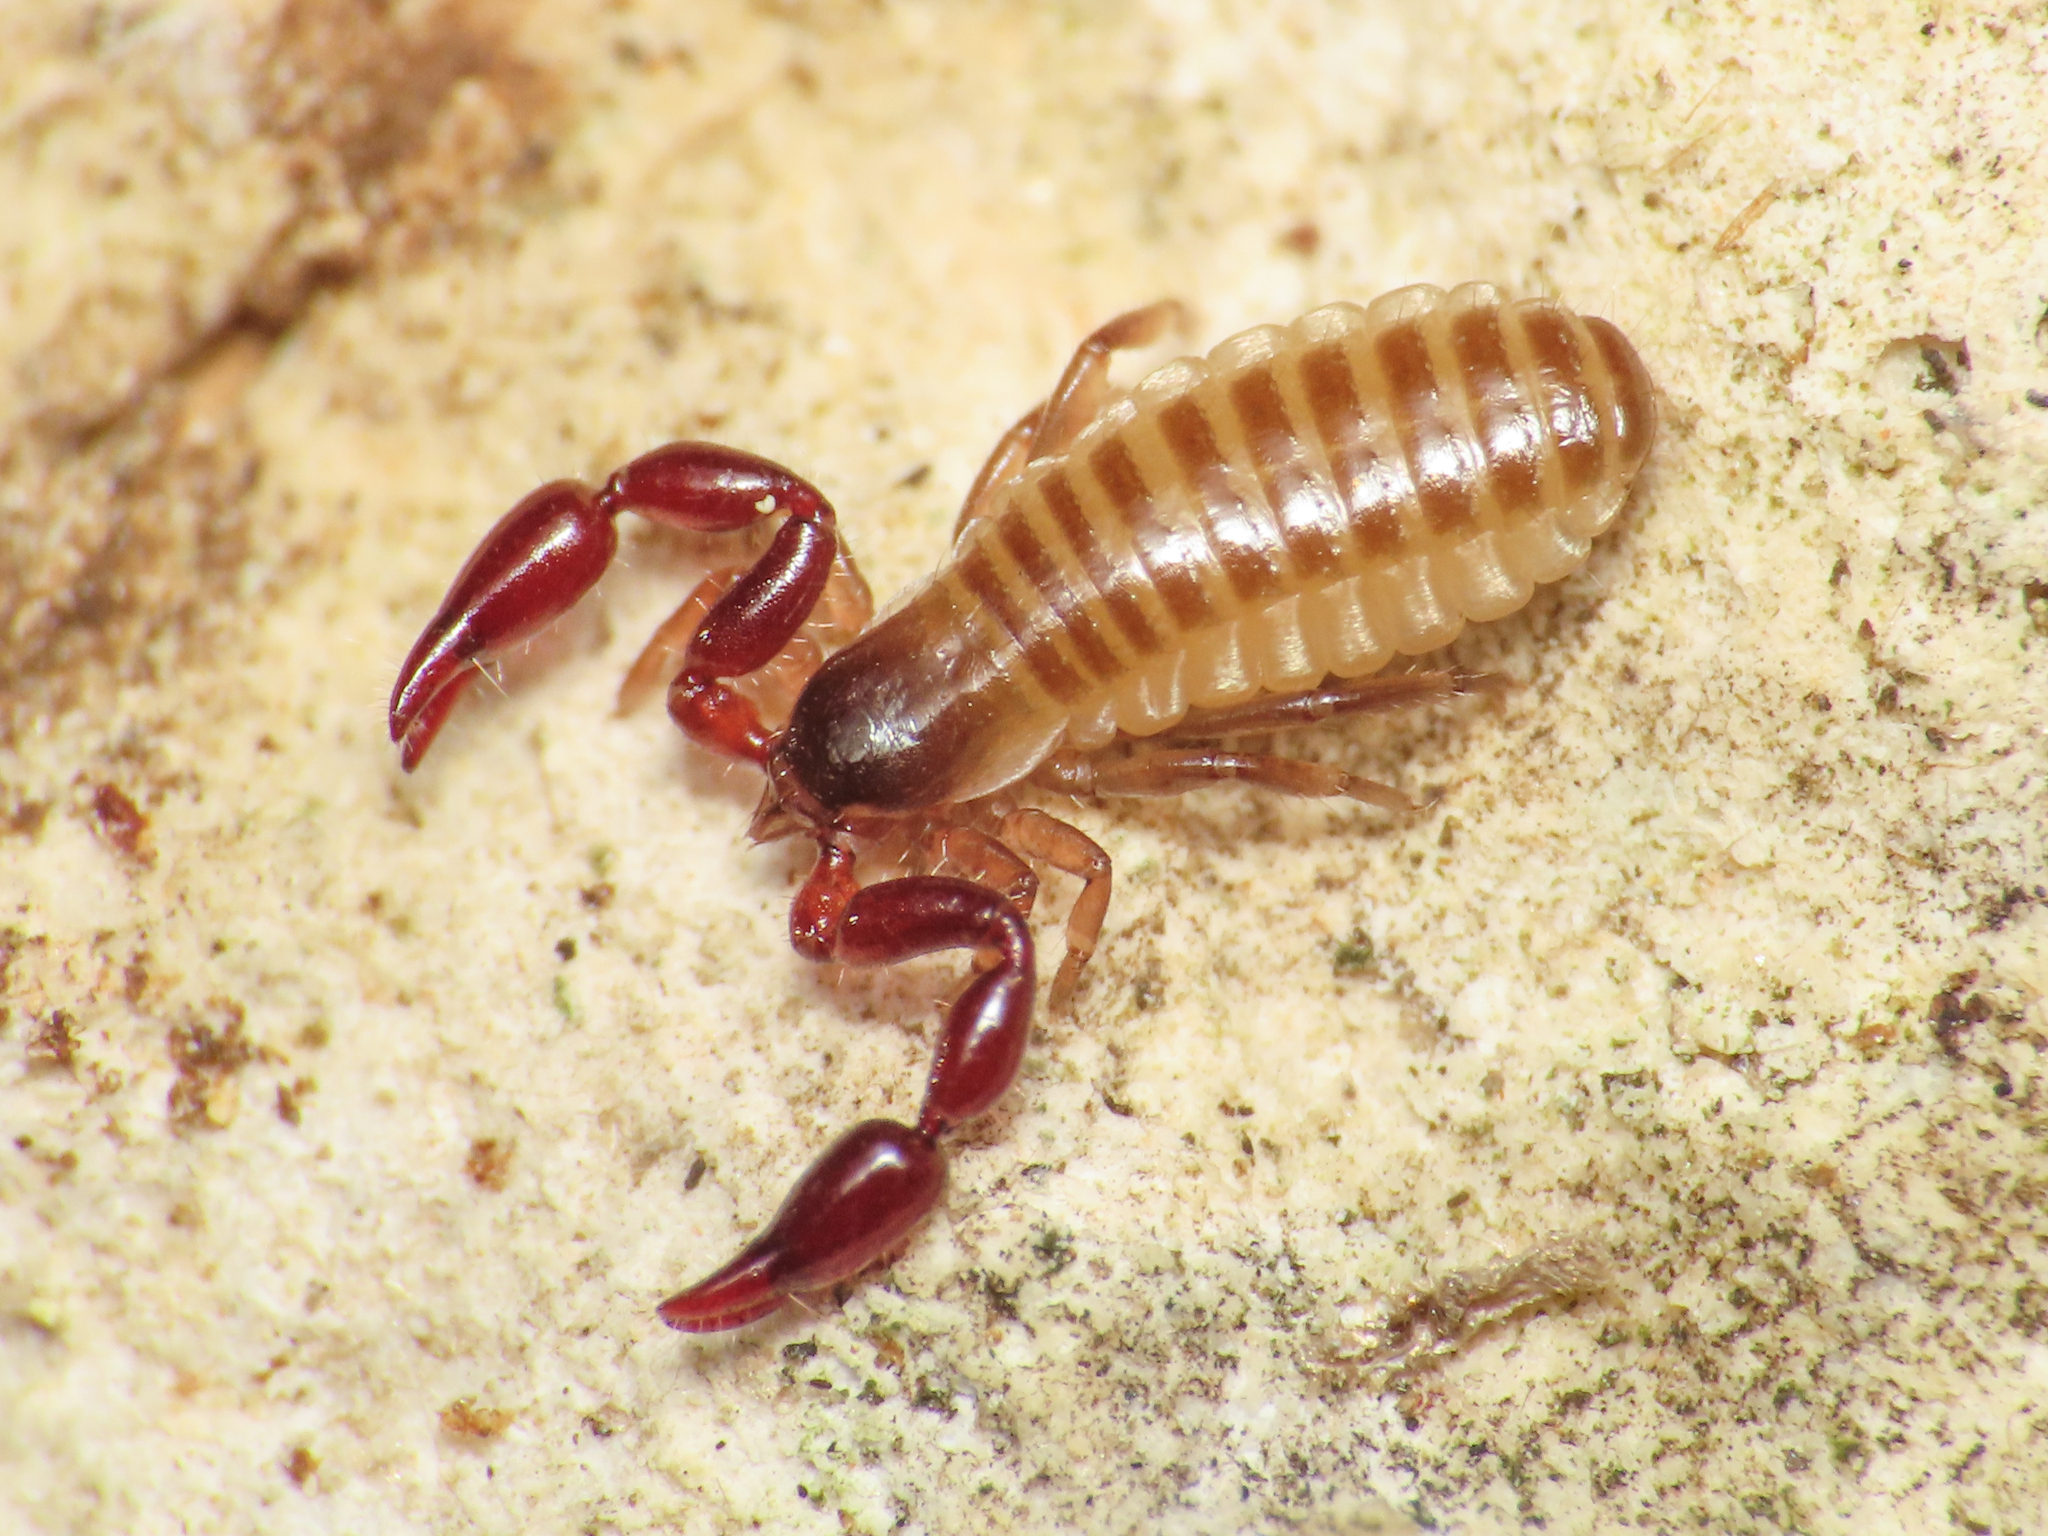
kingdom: Animalia
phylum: Arthropoda
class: Arachnida
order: Pseudoscorpiones
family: Atemnidae
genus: Atemnus
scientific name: Atemnus politus
